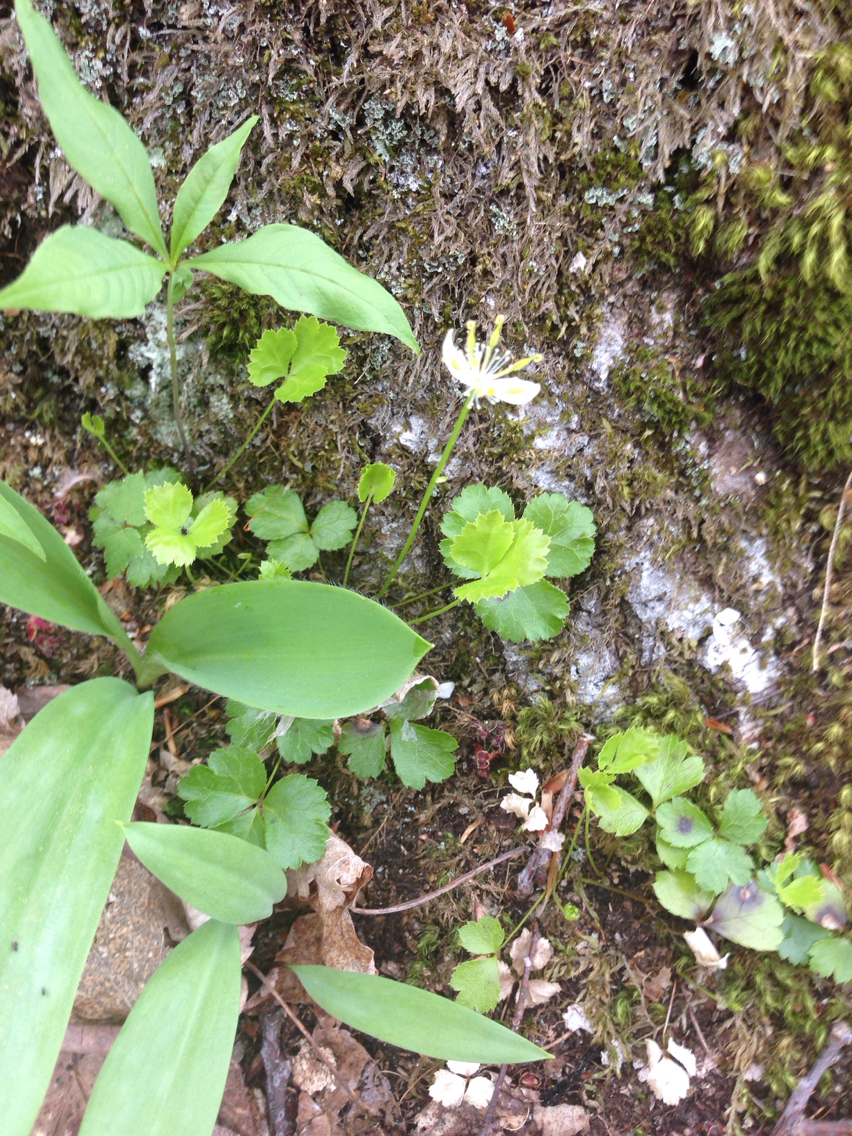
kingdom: Plantae
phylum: Tracheophyta
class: Magnoliopsida
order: Ranunculales
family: Ranunculaceae
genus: Coptis
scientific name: Coptis trifolia
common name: Canker-root
